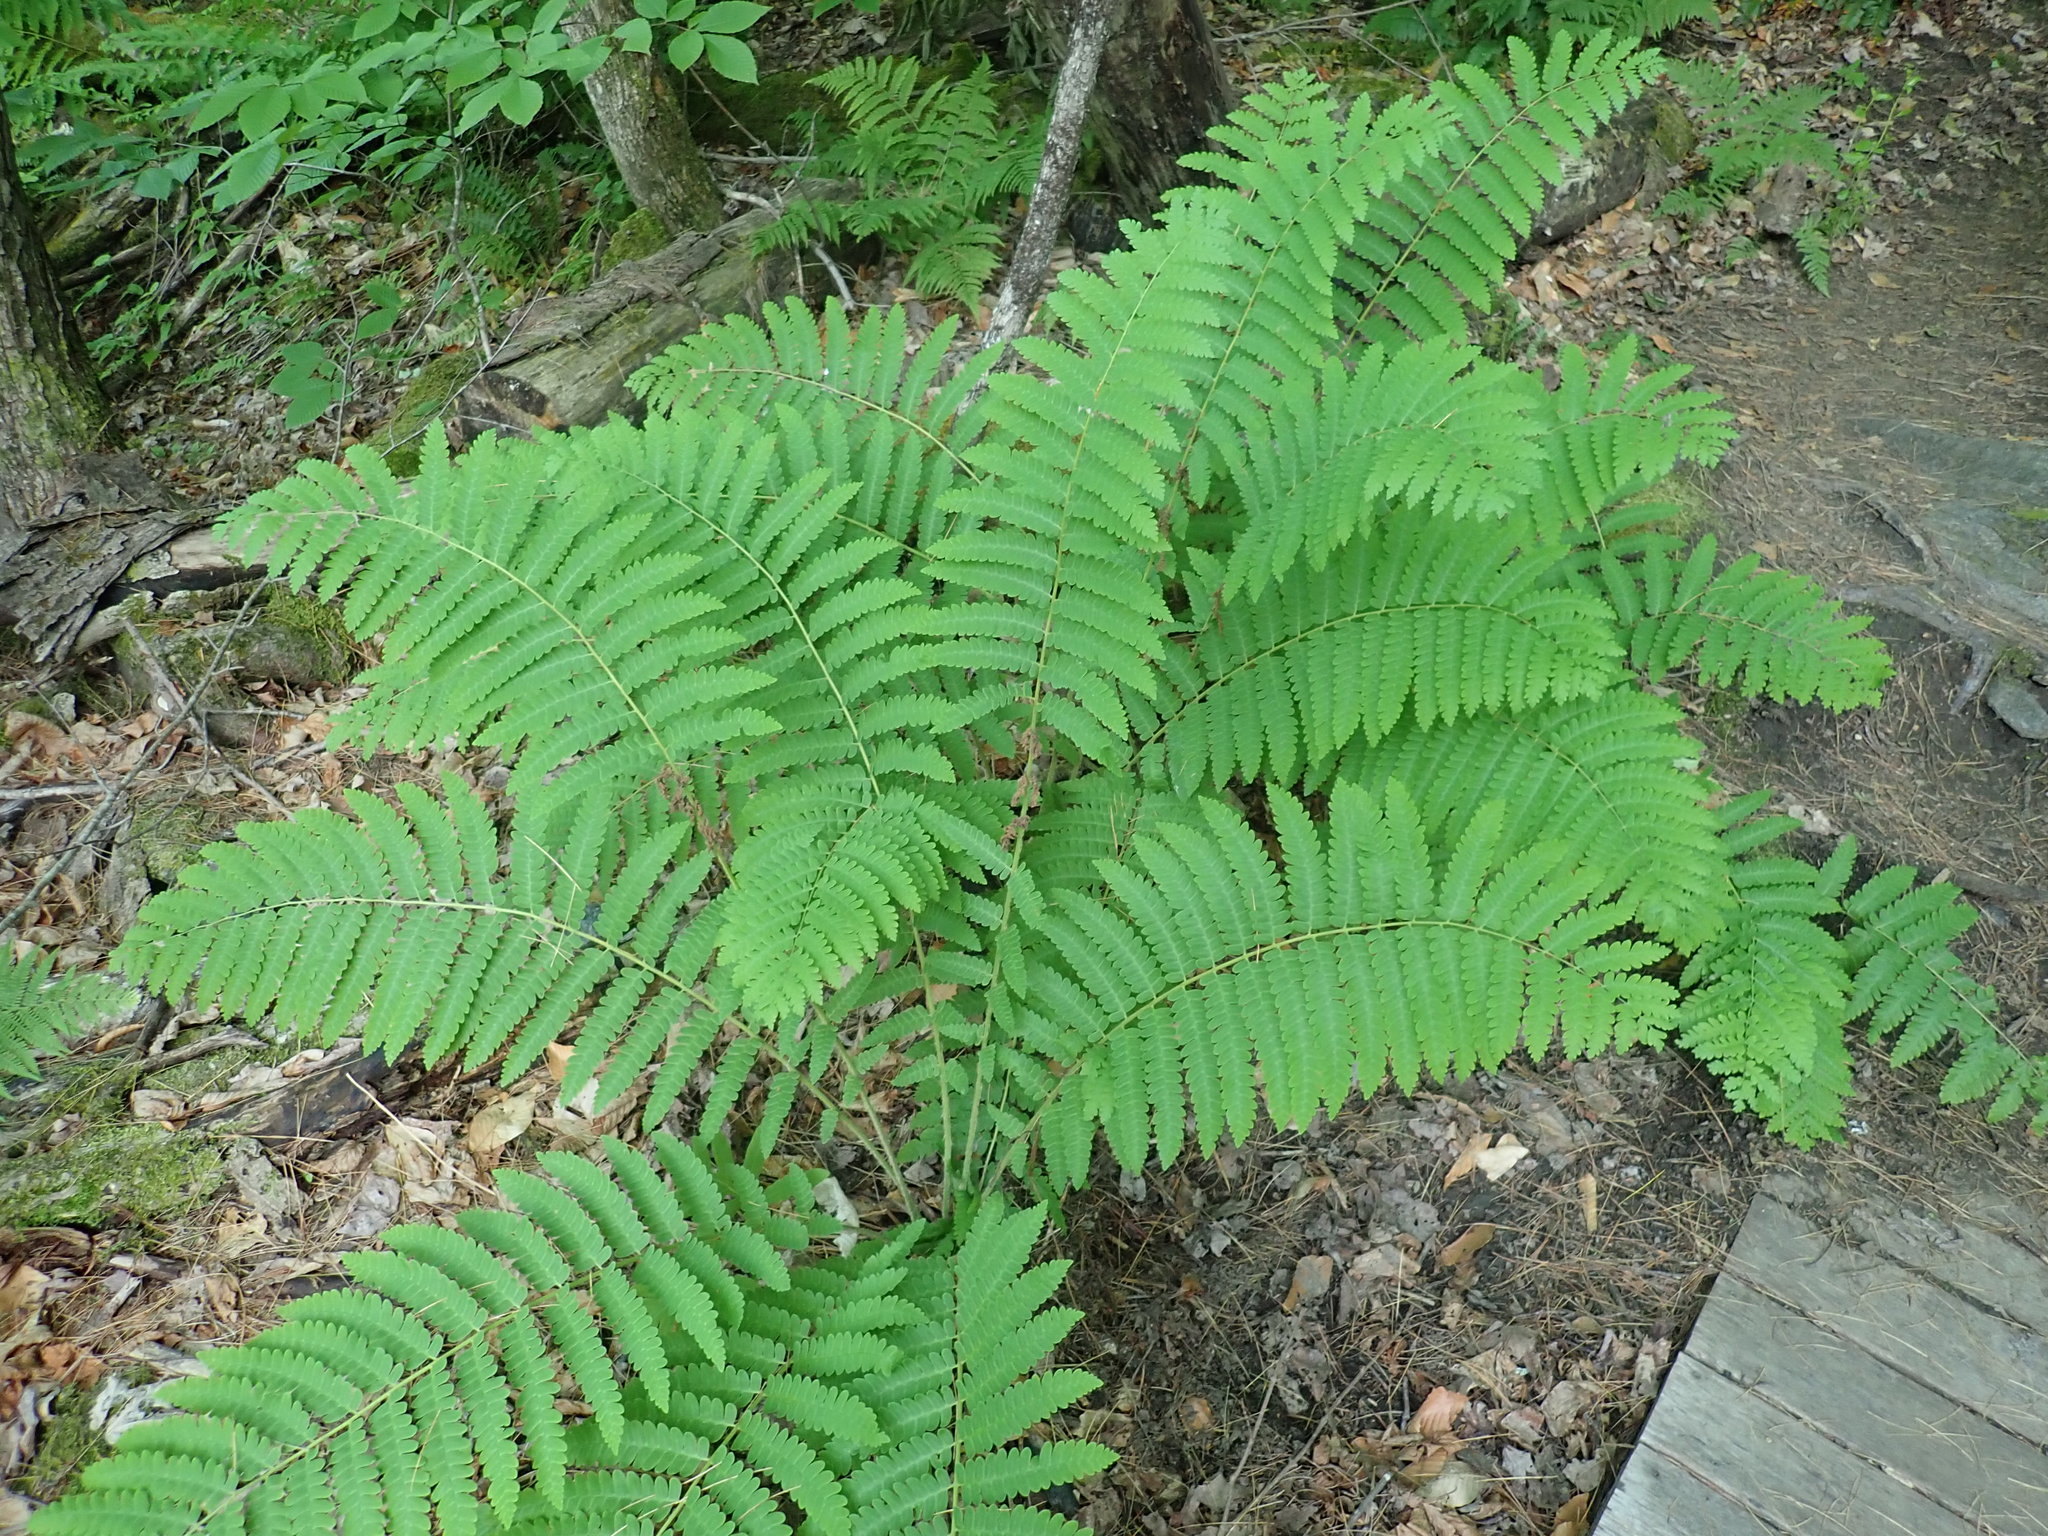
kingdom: Plantae
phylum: Tracheophyta
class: Polypodiopsida
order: Osmundales
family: Osmundaceae
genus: Claytosmunda
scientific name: Claytosmunda claytoniana
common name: Clayton's fern
